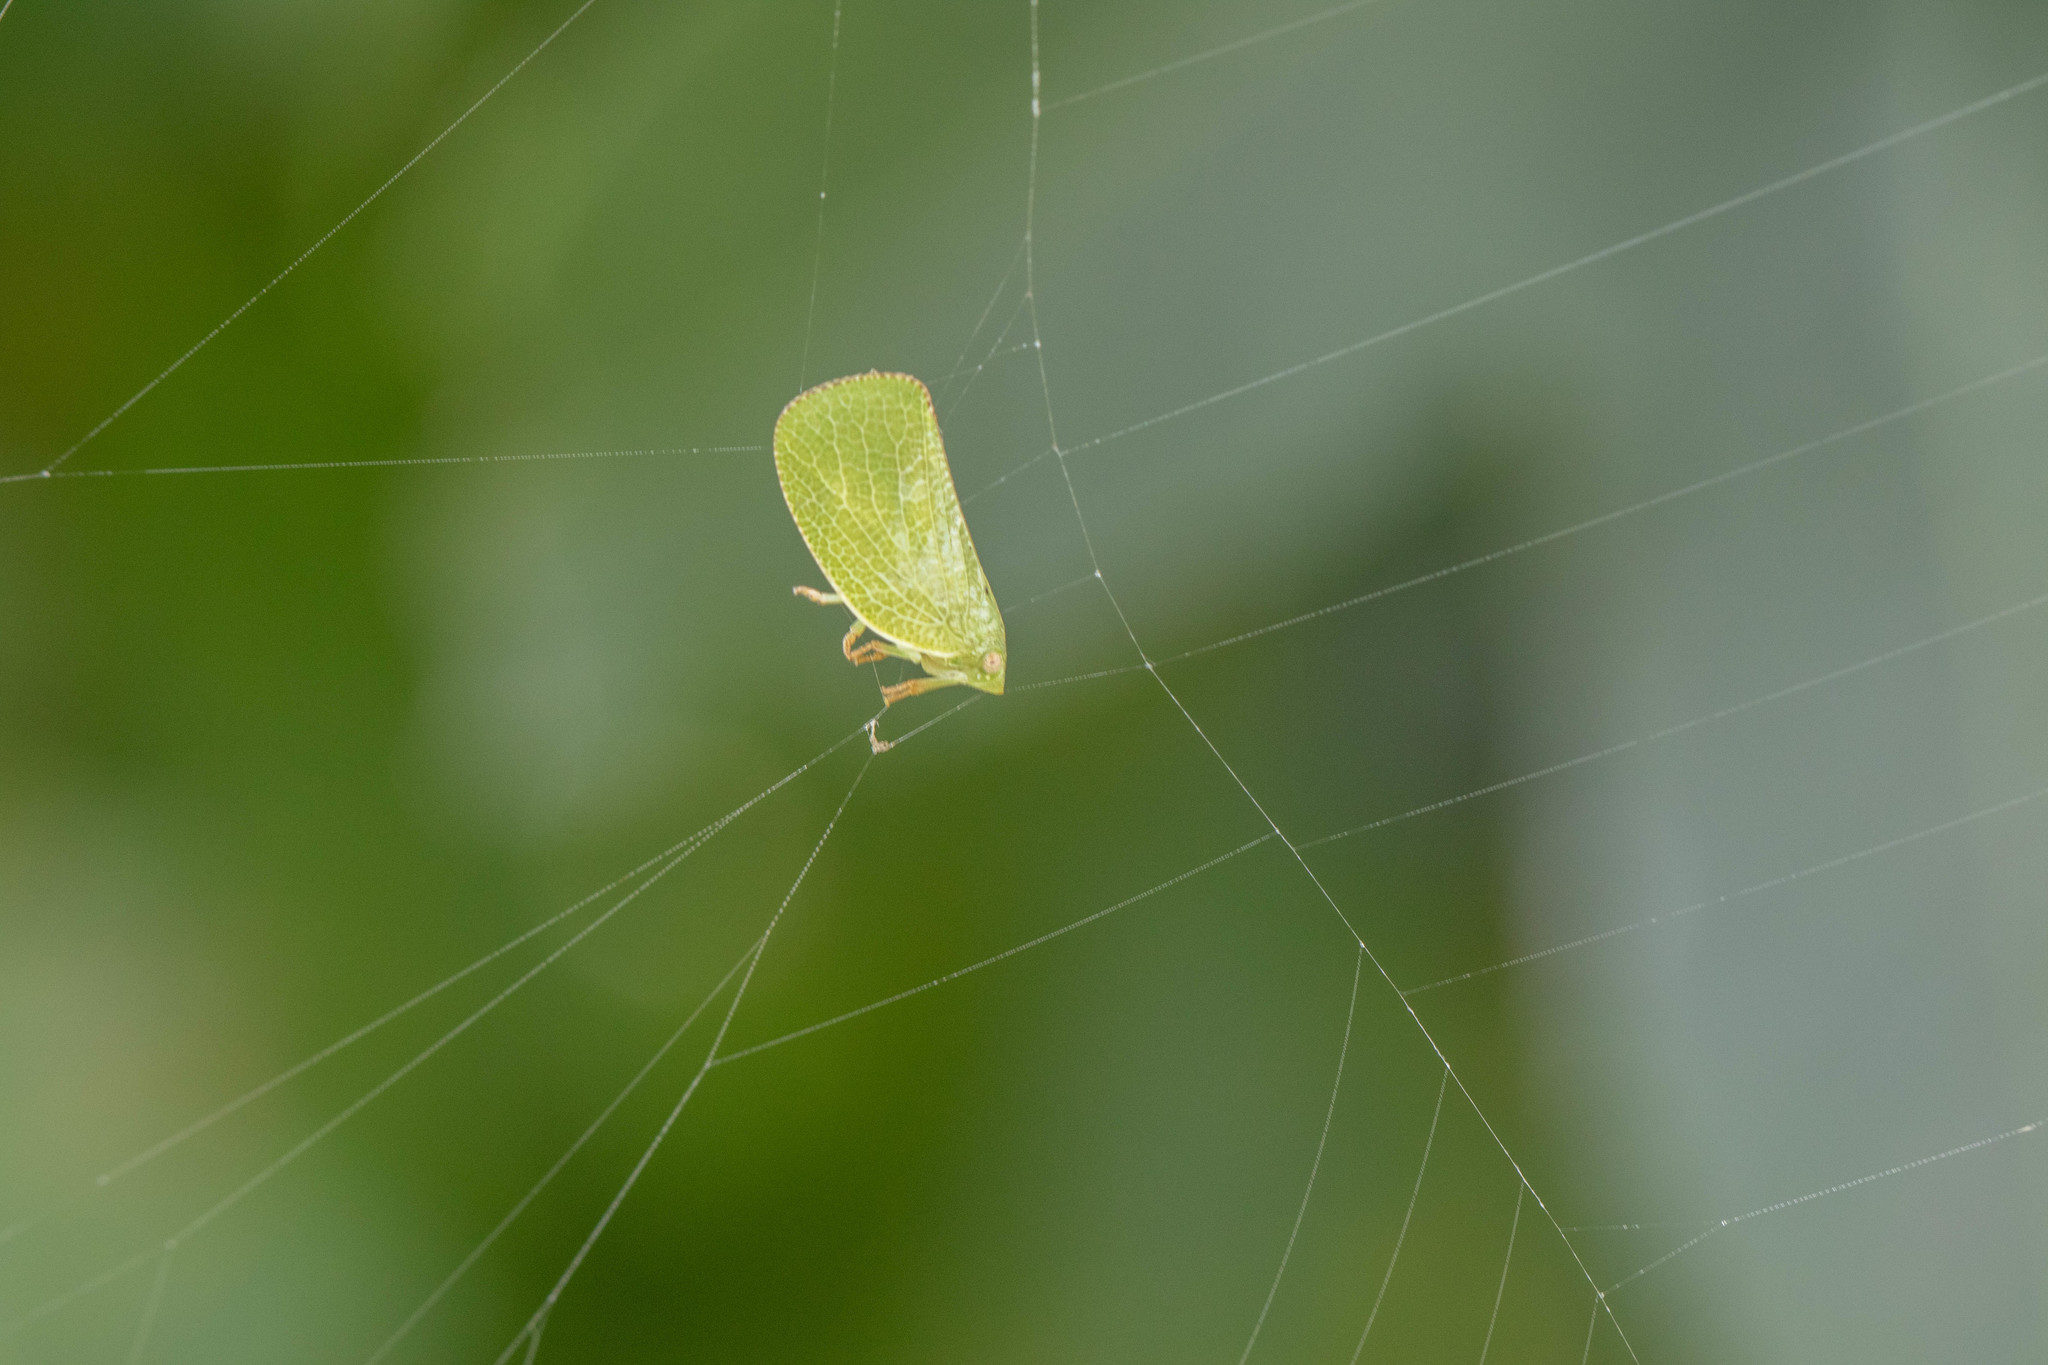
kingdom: Animalia
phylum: Arthropoda
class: Insecta
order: Hemiptera
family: Acanaloniidae
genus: Acanalonia
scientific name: Acanalonia conica
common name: Green cone-headed planthopper
